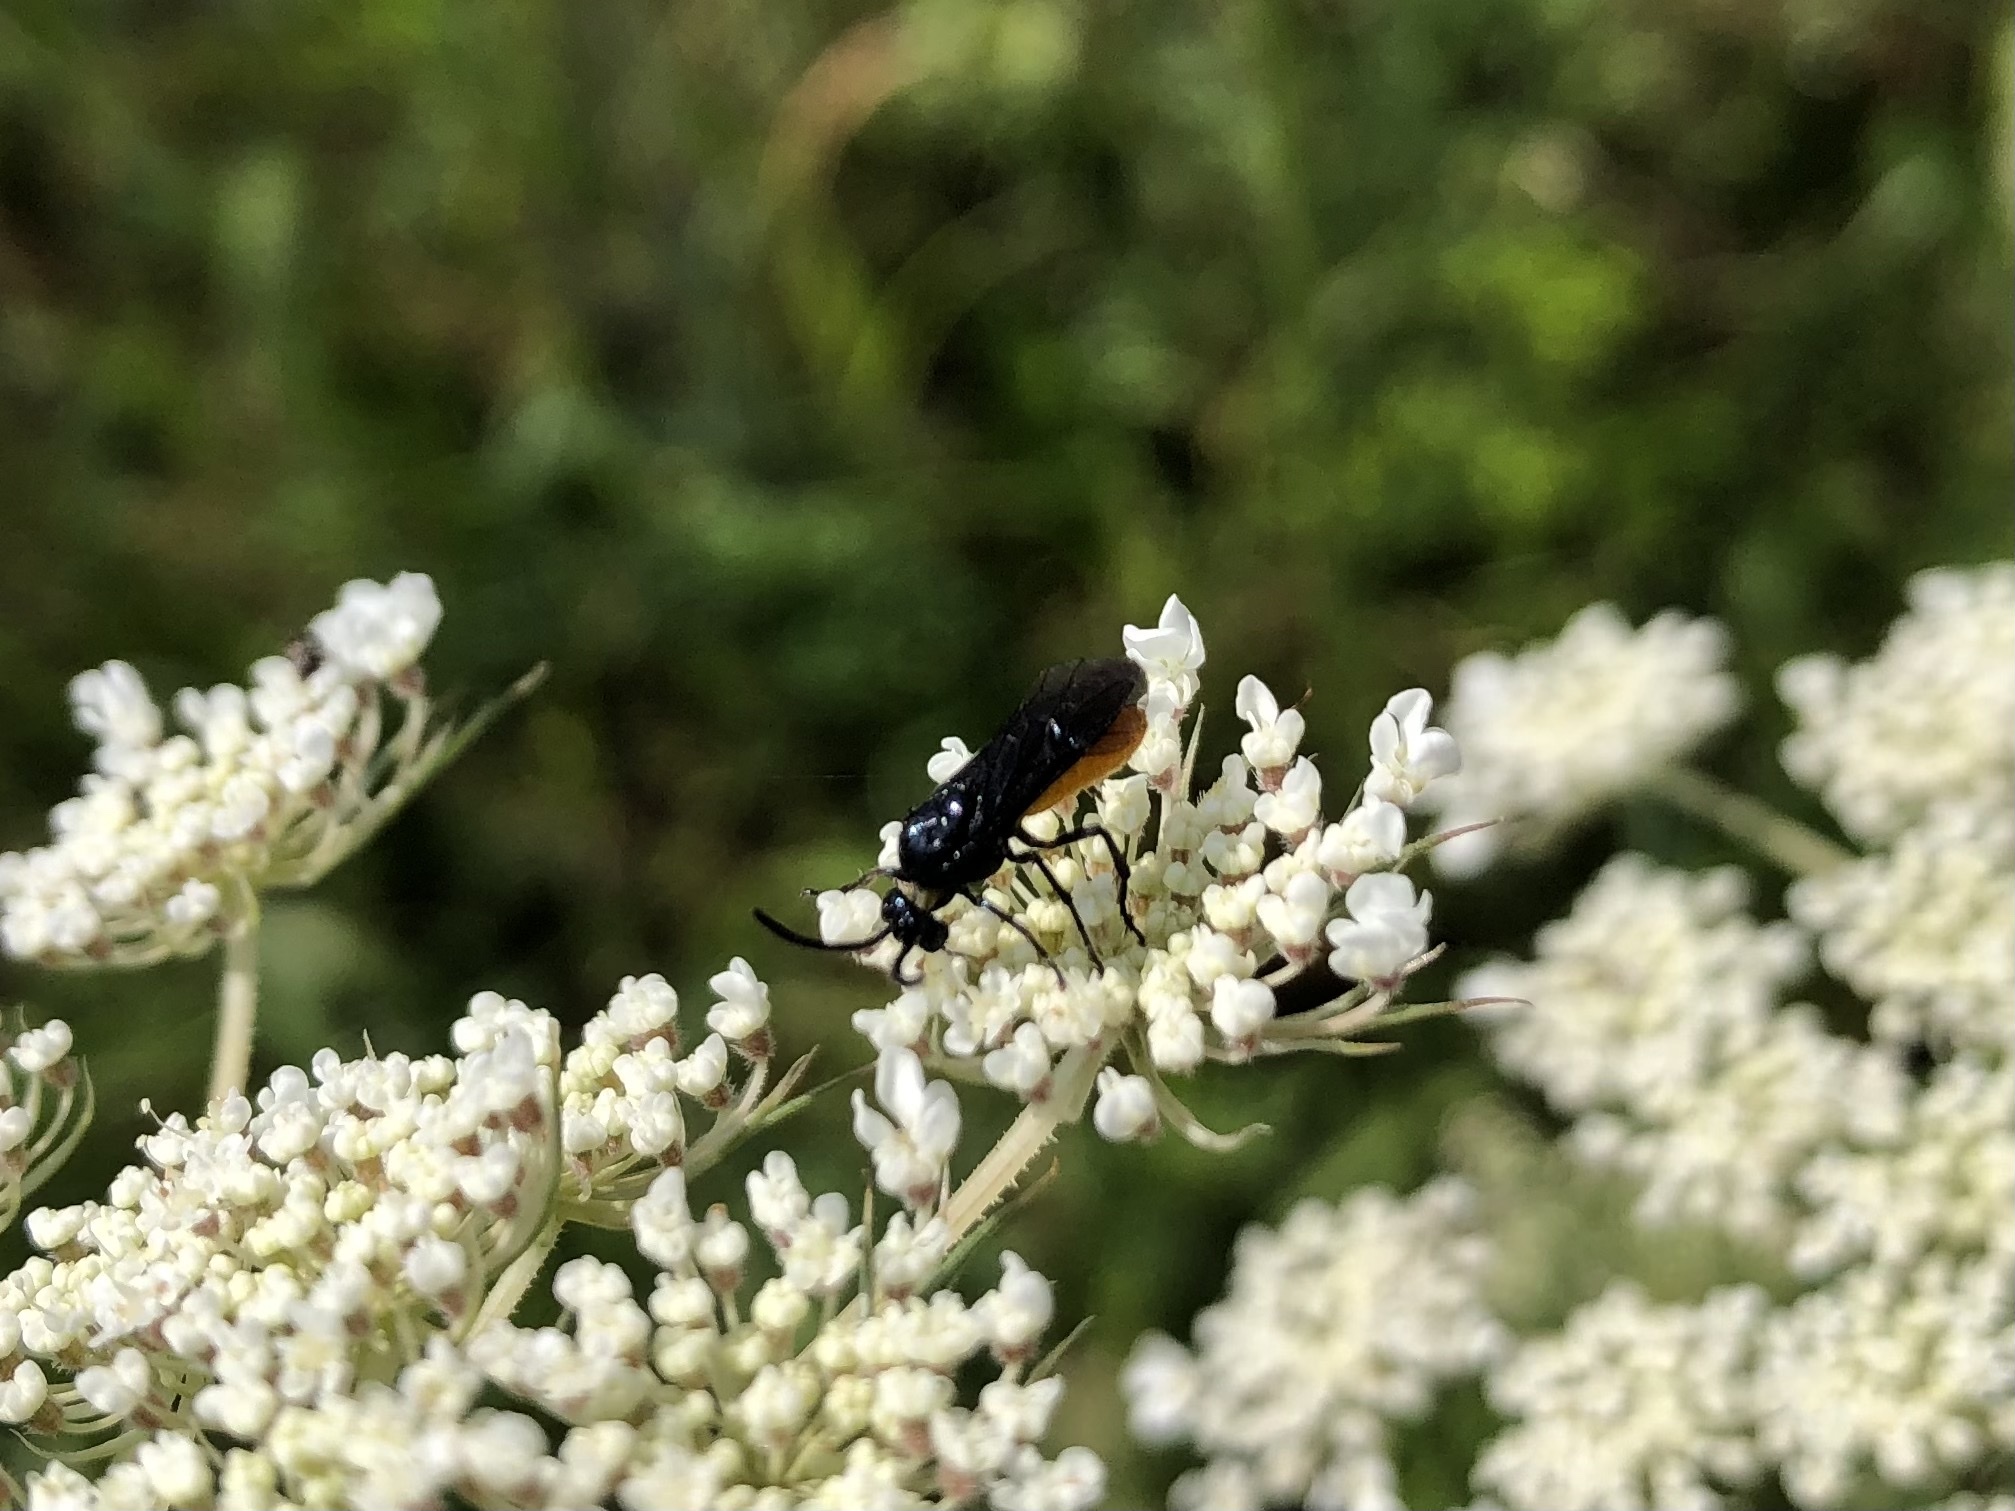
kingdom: Animalia
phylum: Arthropoda
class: Insecta
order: Hymenoptera
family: Argidae
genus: Arge
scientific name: Arge pagana
